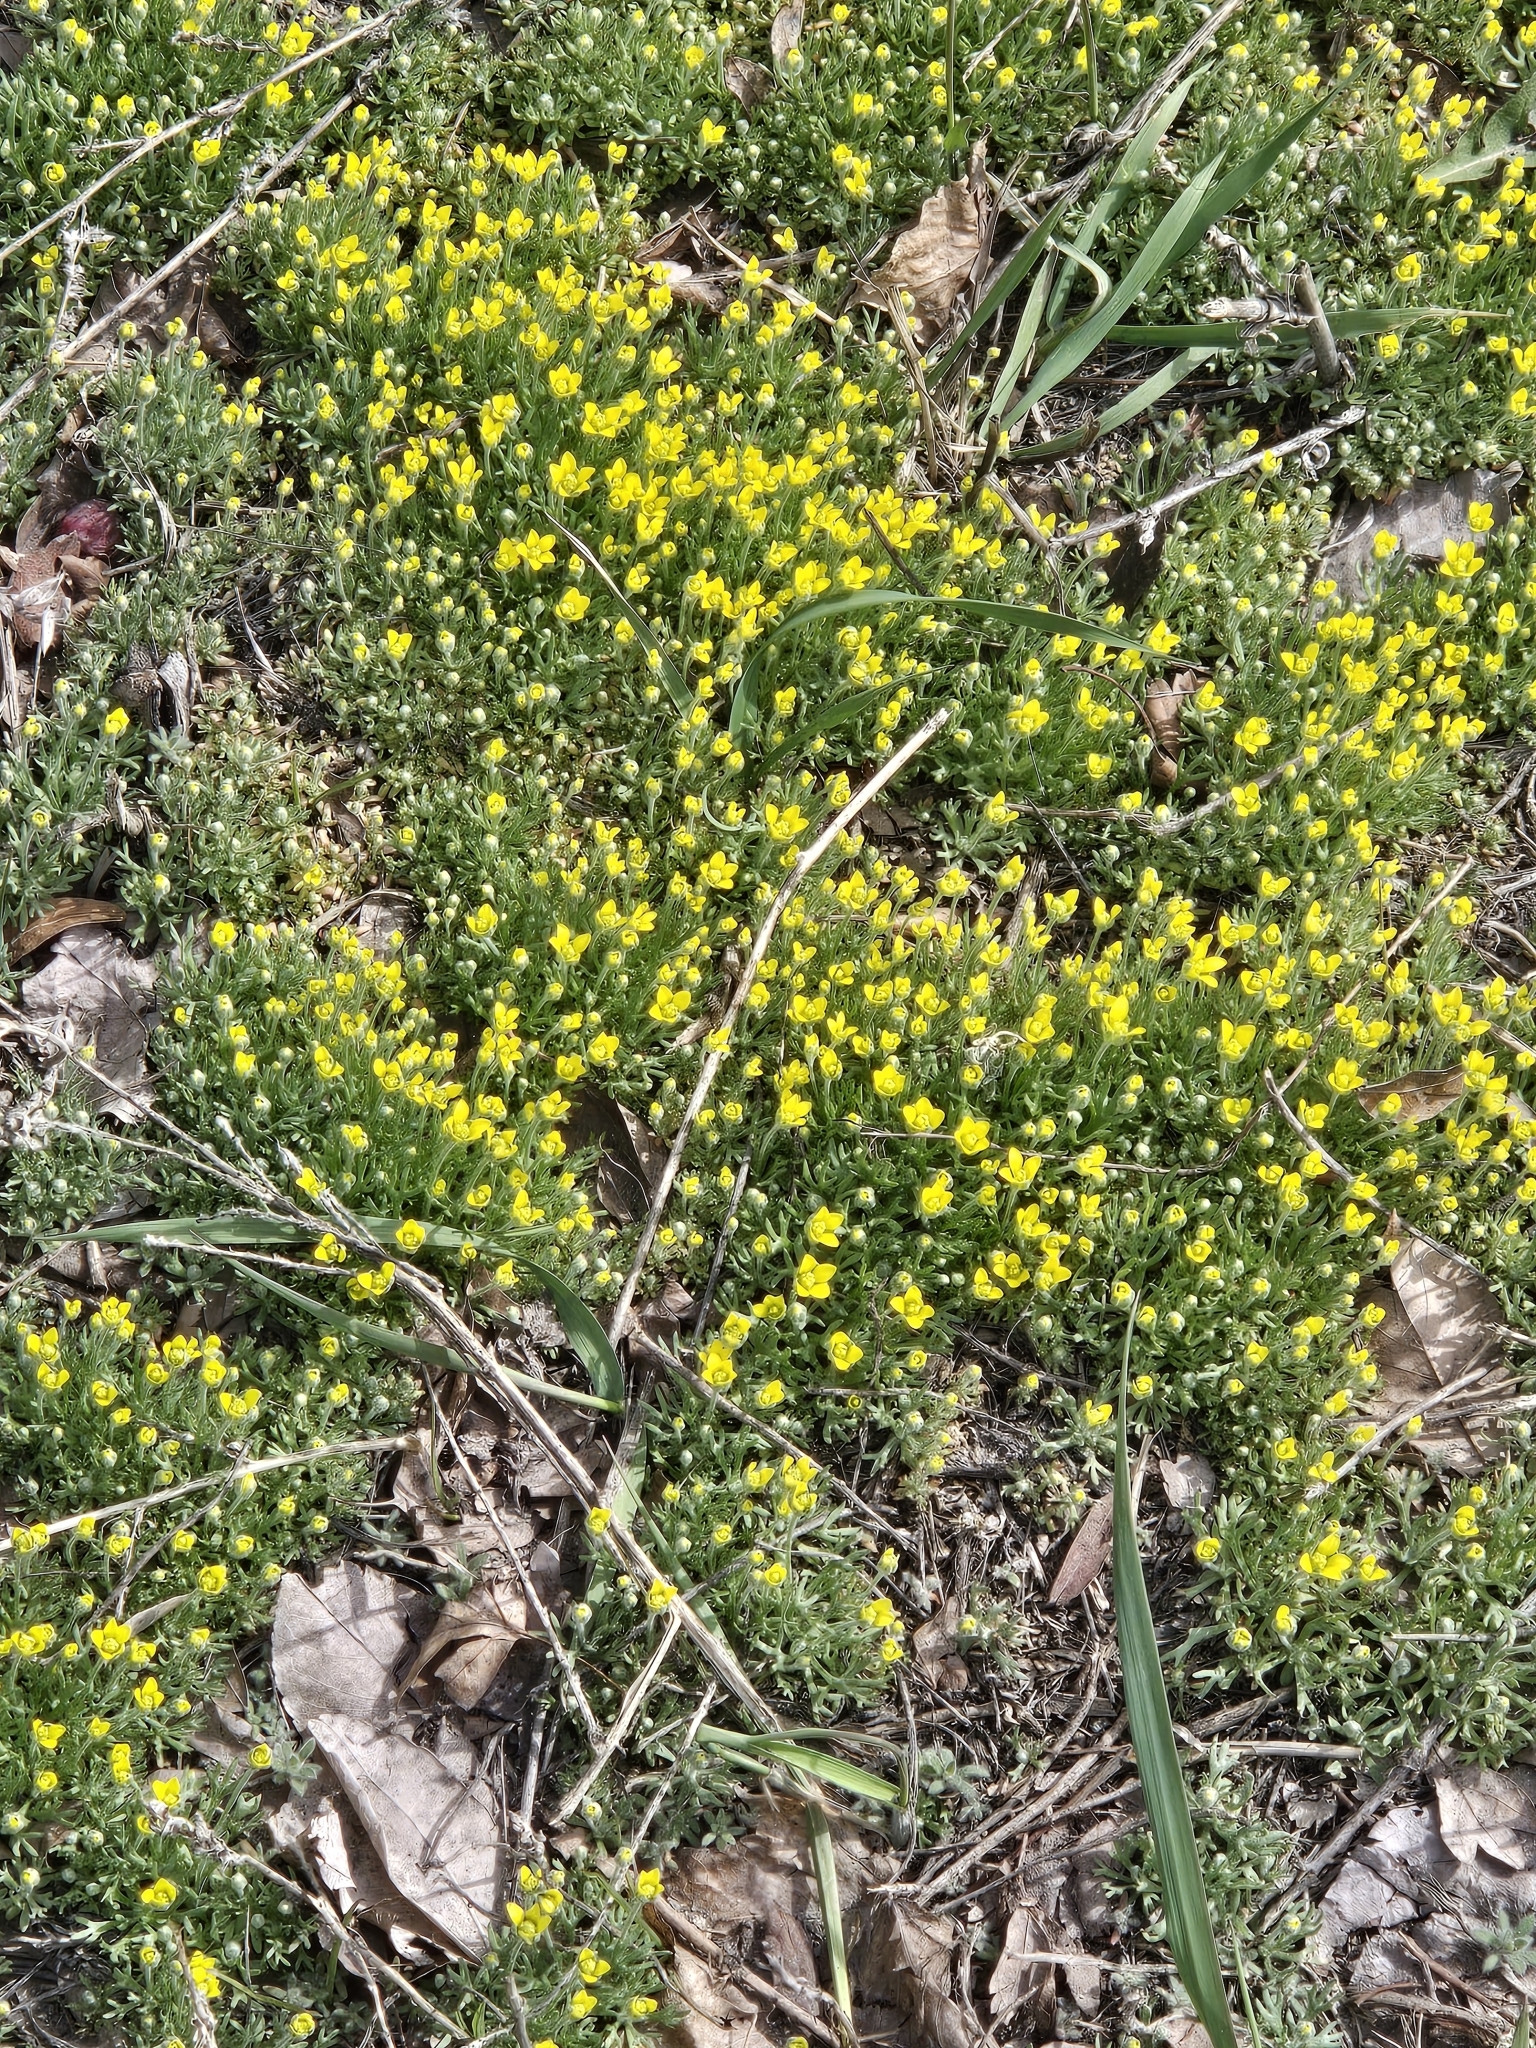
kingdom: Plantae
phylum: Tracheophyta
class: Magnoliopsida
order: Ranunculales
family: Ranunculaceae
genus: Ceratocephala
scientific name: Ceratocephala orthoceras
